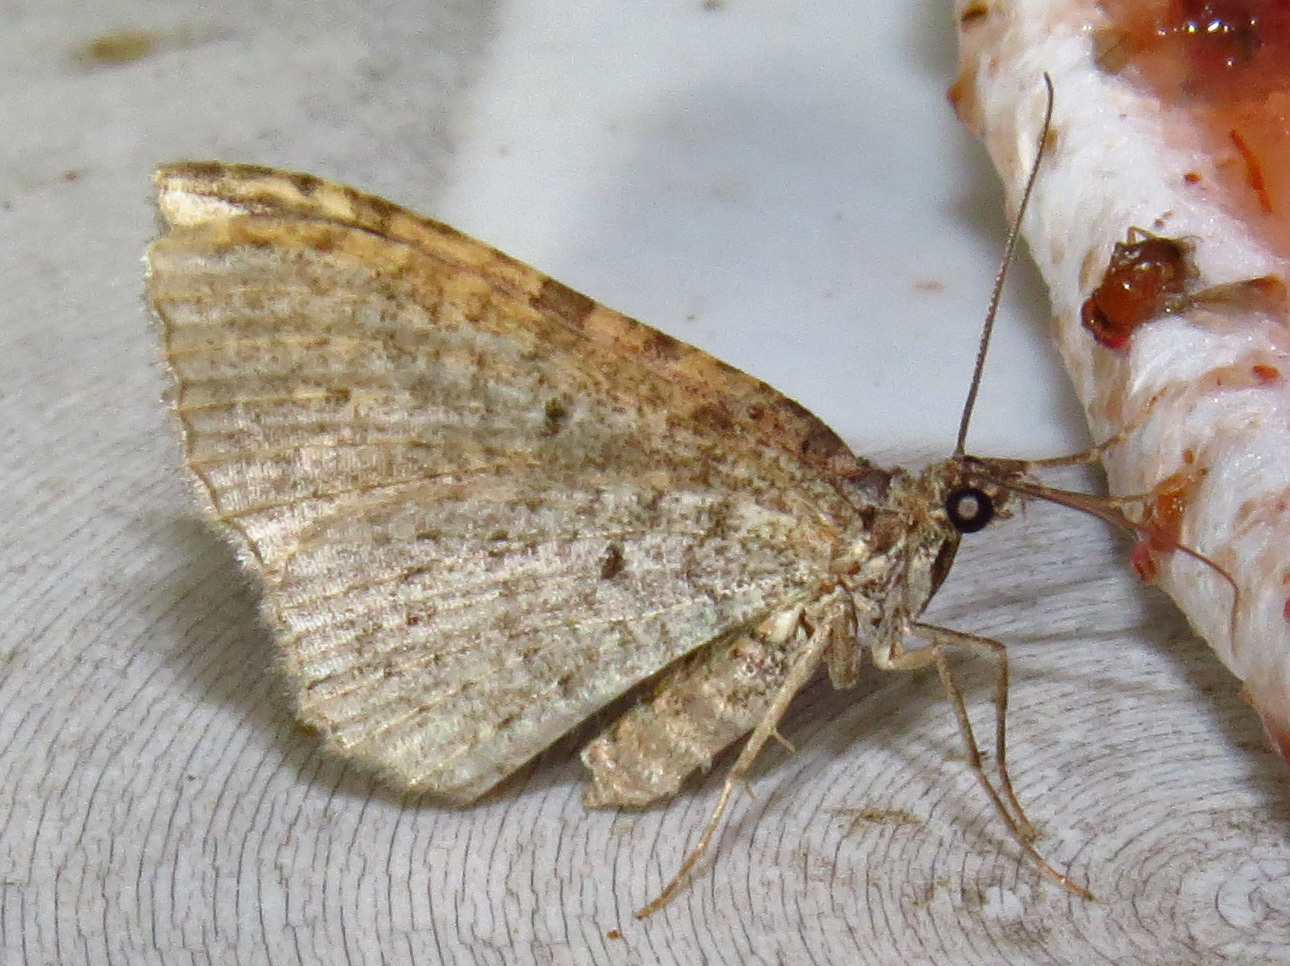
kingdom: Animalia
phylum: Arthropoda
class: Insecta
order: Lepidoptera
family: Geometridae
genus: Costaconvexa
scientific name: Costaconvexa centrostrigaria
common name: Bent-line carpet
